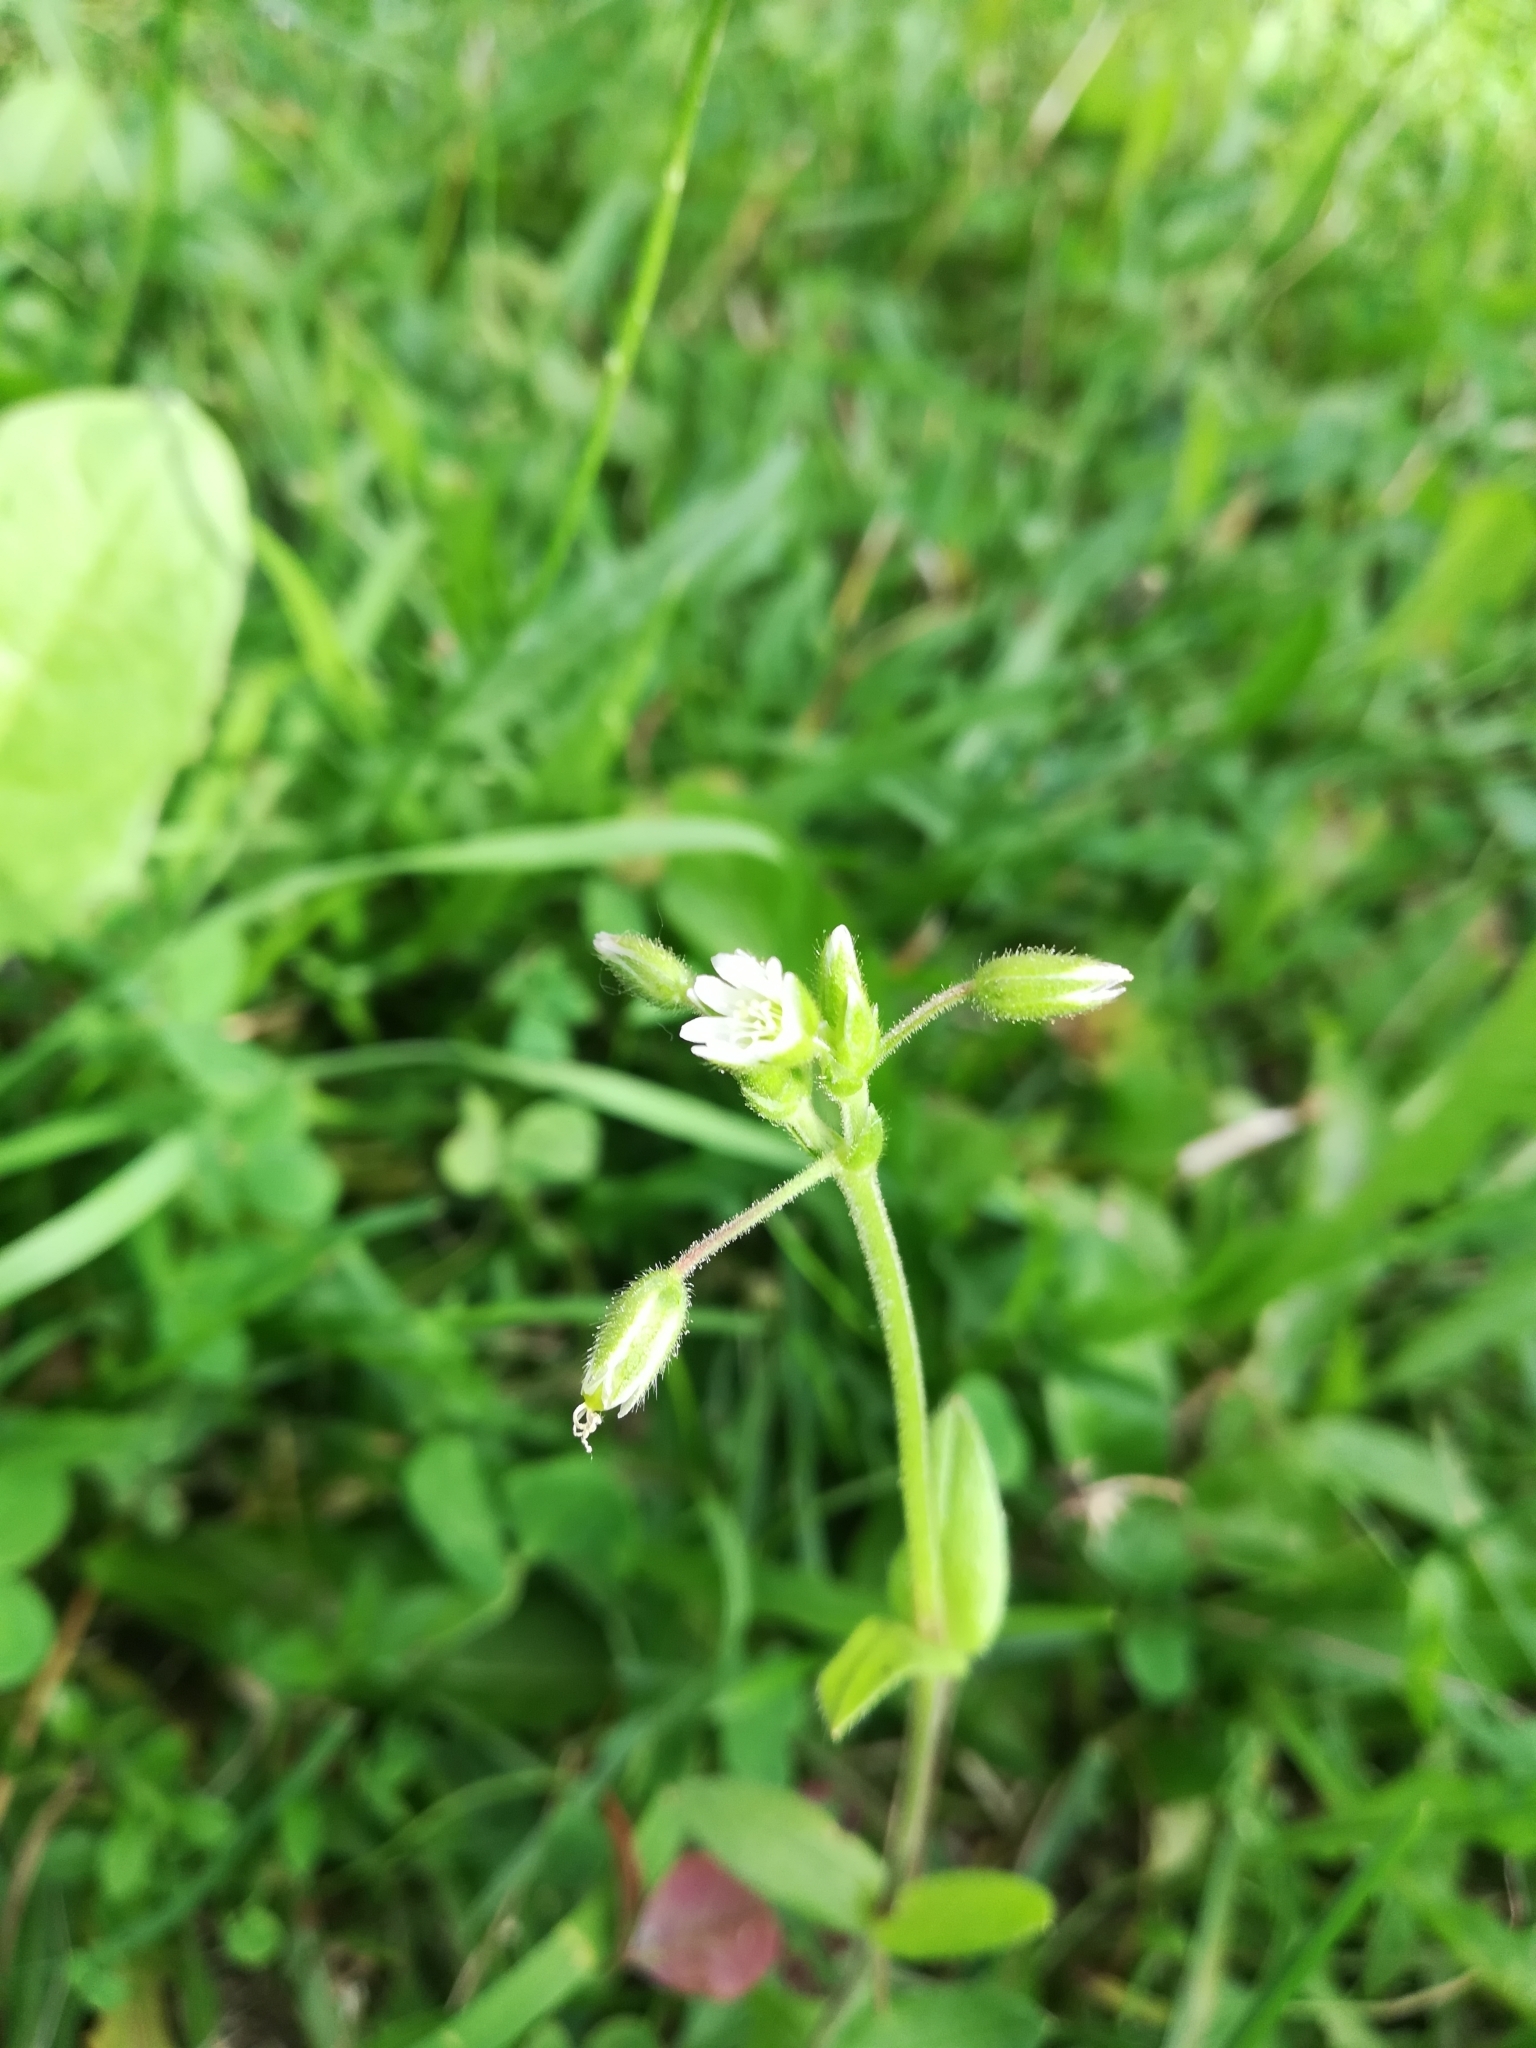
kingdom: Plantae
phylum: Tracheophyta
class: Magnoliopsida
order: Caryophyllales
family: Caryophyllaceae
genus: Cerastium
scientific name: Cerastium holosteoides
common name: Big chickweed
